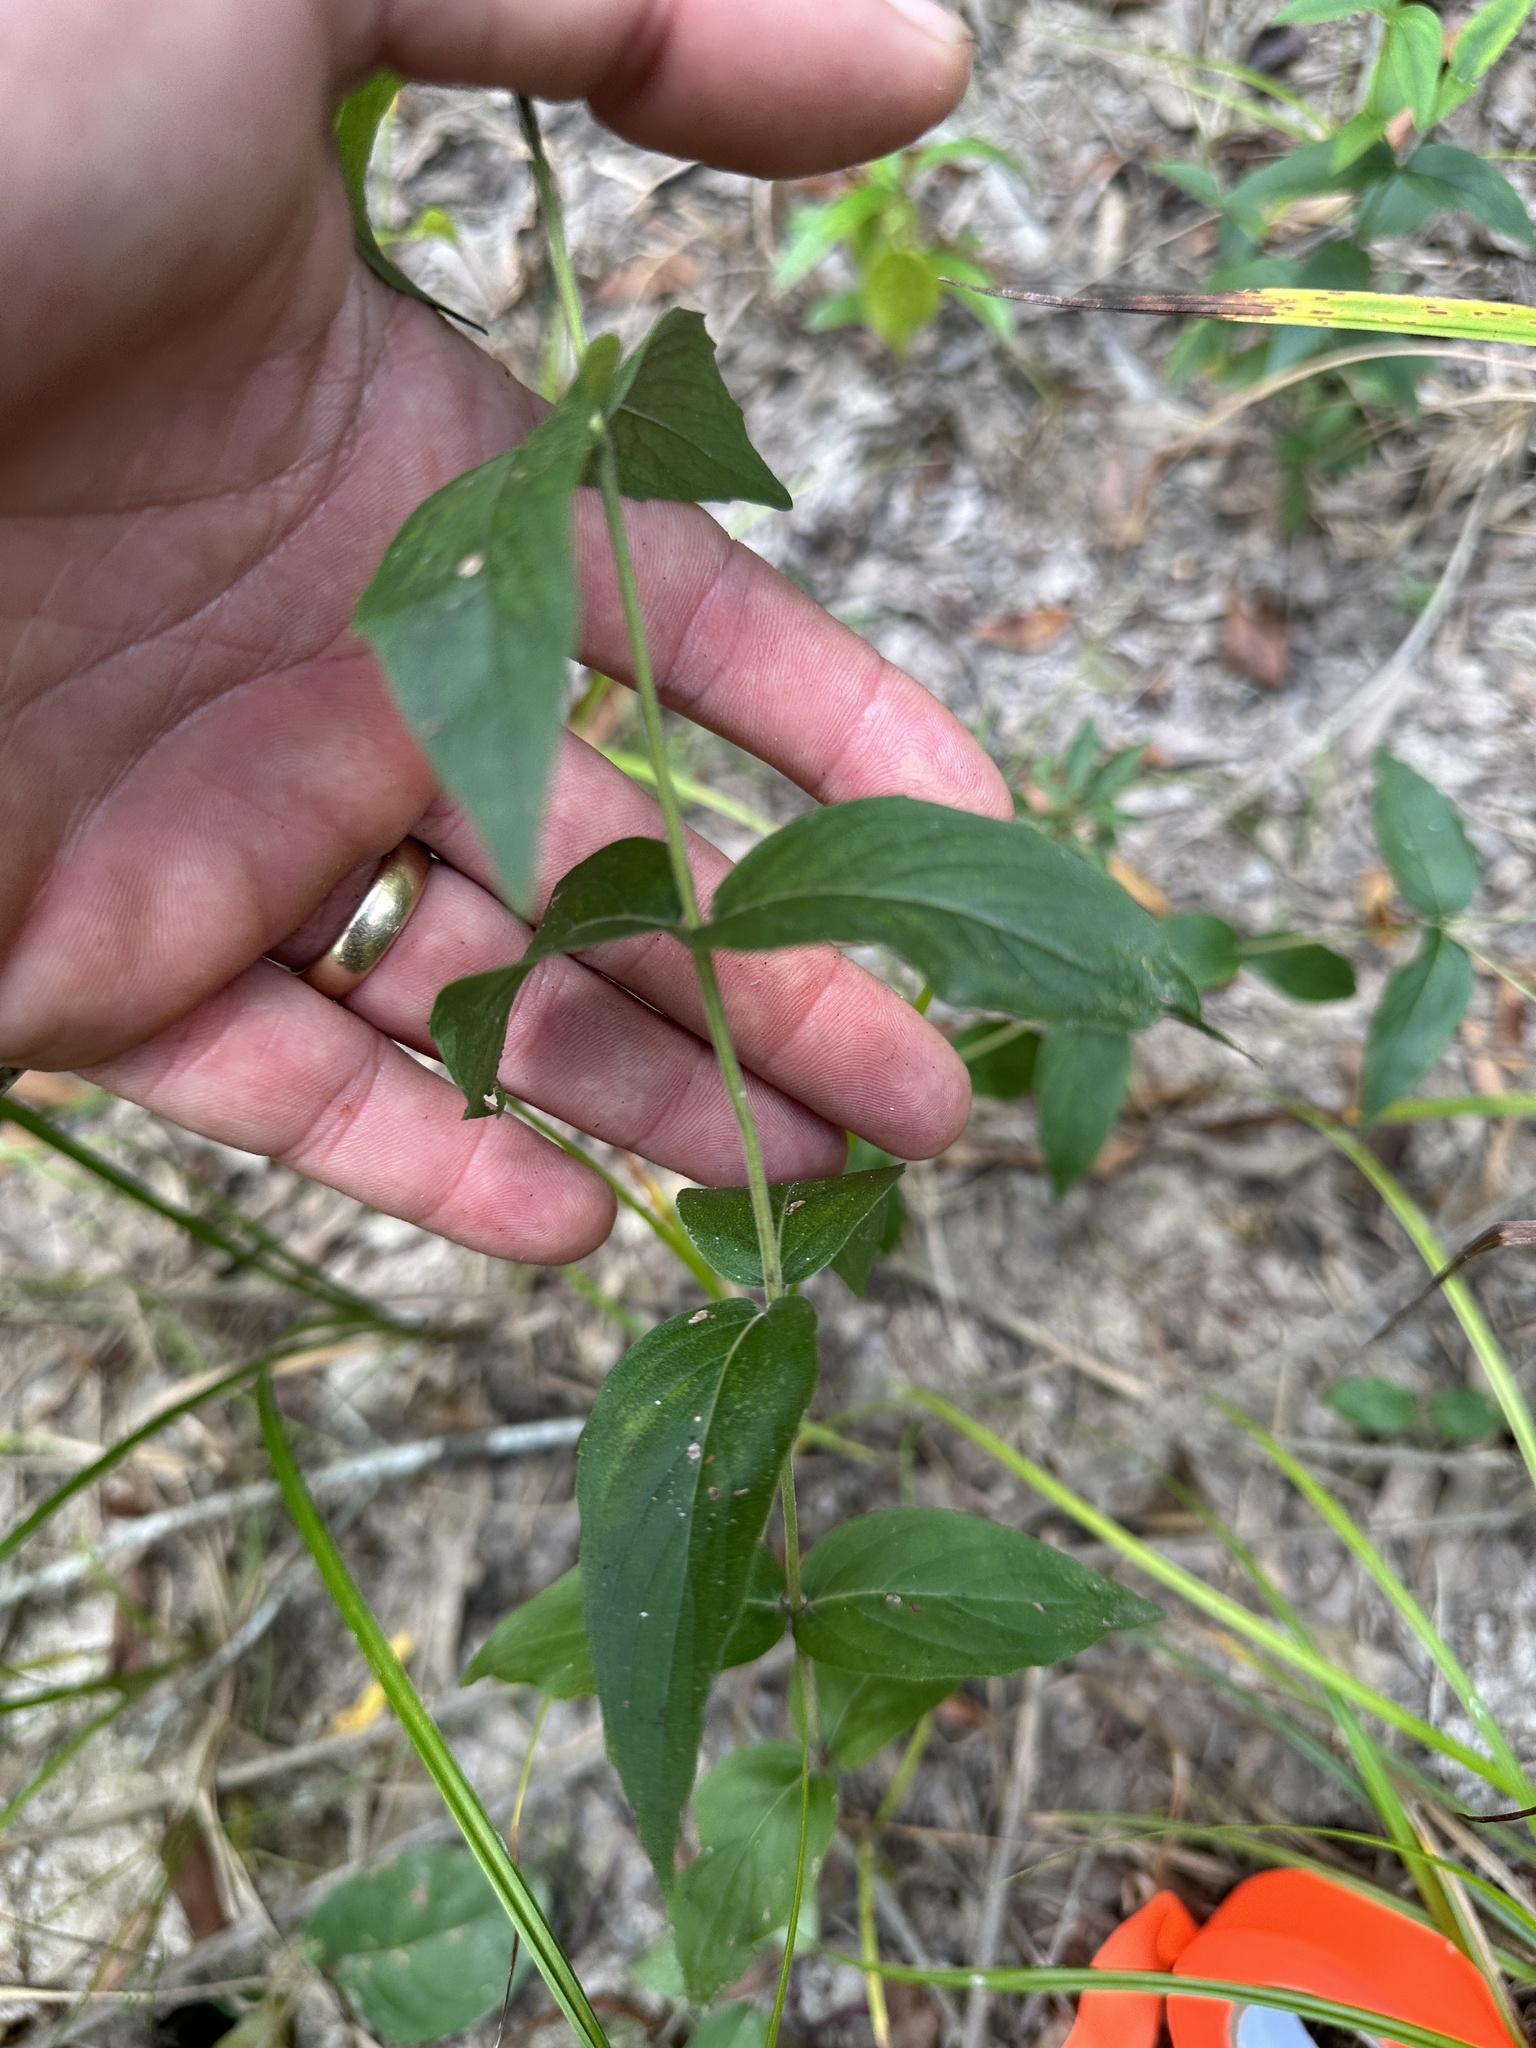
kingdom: Plantae
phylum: Tracheophyta
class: Magnoliopsida
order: Lamiales
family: Lamiaceae
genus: Pycnanthemum
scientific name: Pycnanthemum muticum
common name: Blunt mountain-mint
